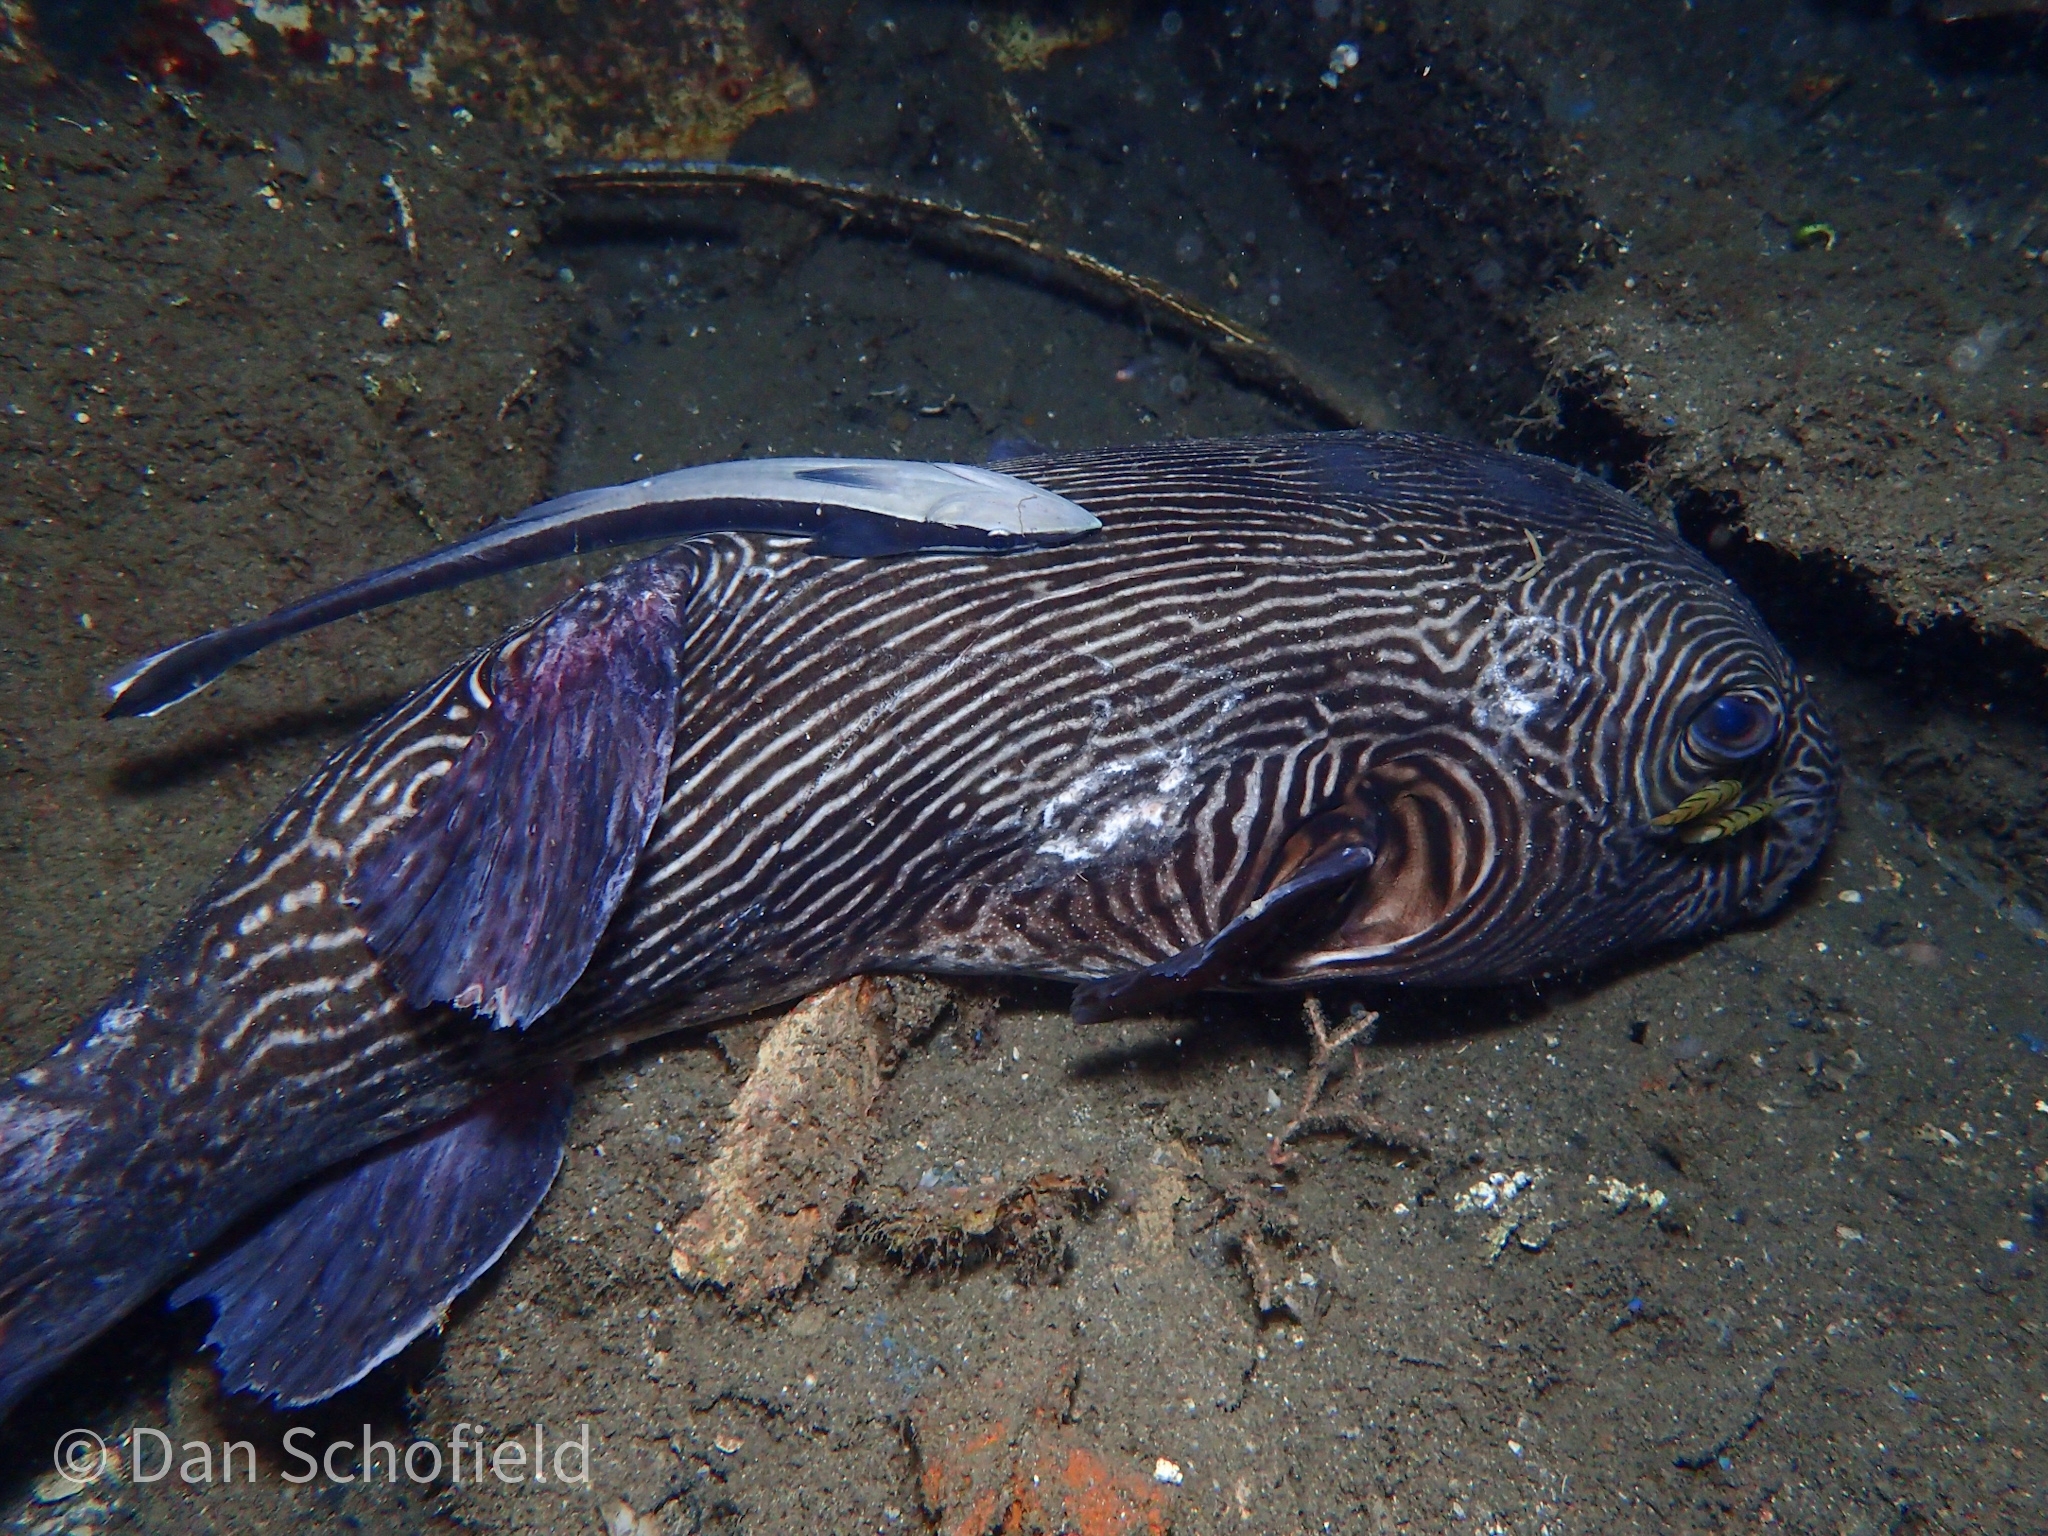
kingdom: Animalia
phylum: Chordata
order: Tetraodontiformes
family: Tetraodontidae
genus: Arothron
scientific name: Arothron multilineatus
